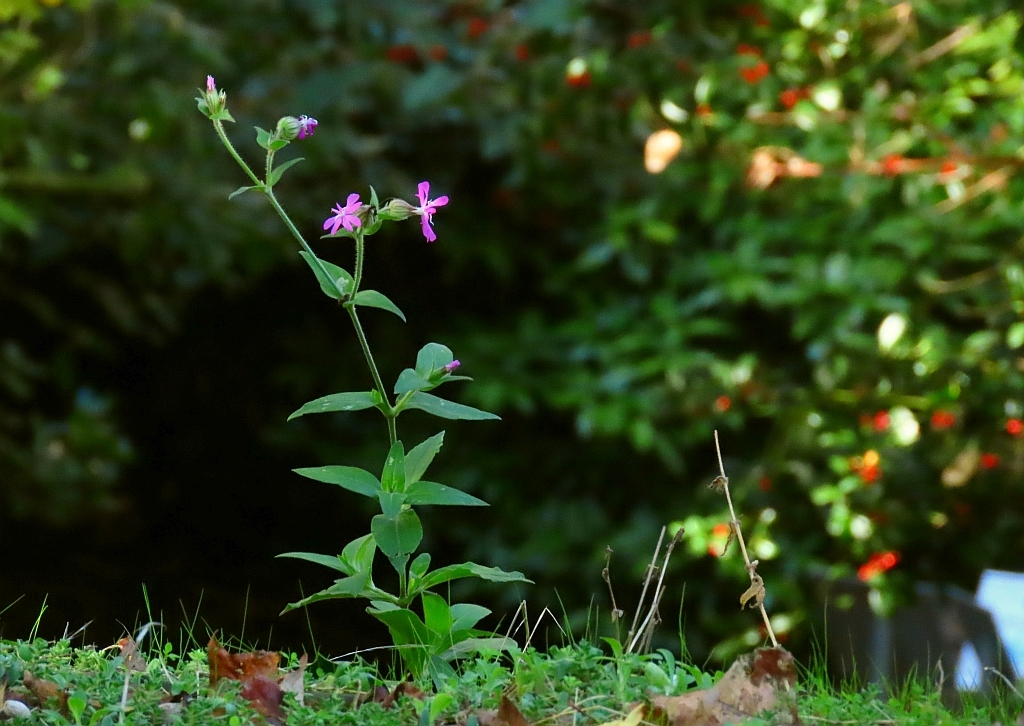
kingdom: Plantae
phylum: Tracheophyta
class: Magnoliopsida
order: Caryophyllales
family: Caryophyllaceae
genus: Silene
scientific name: Silene dioica
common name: Red campion
